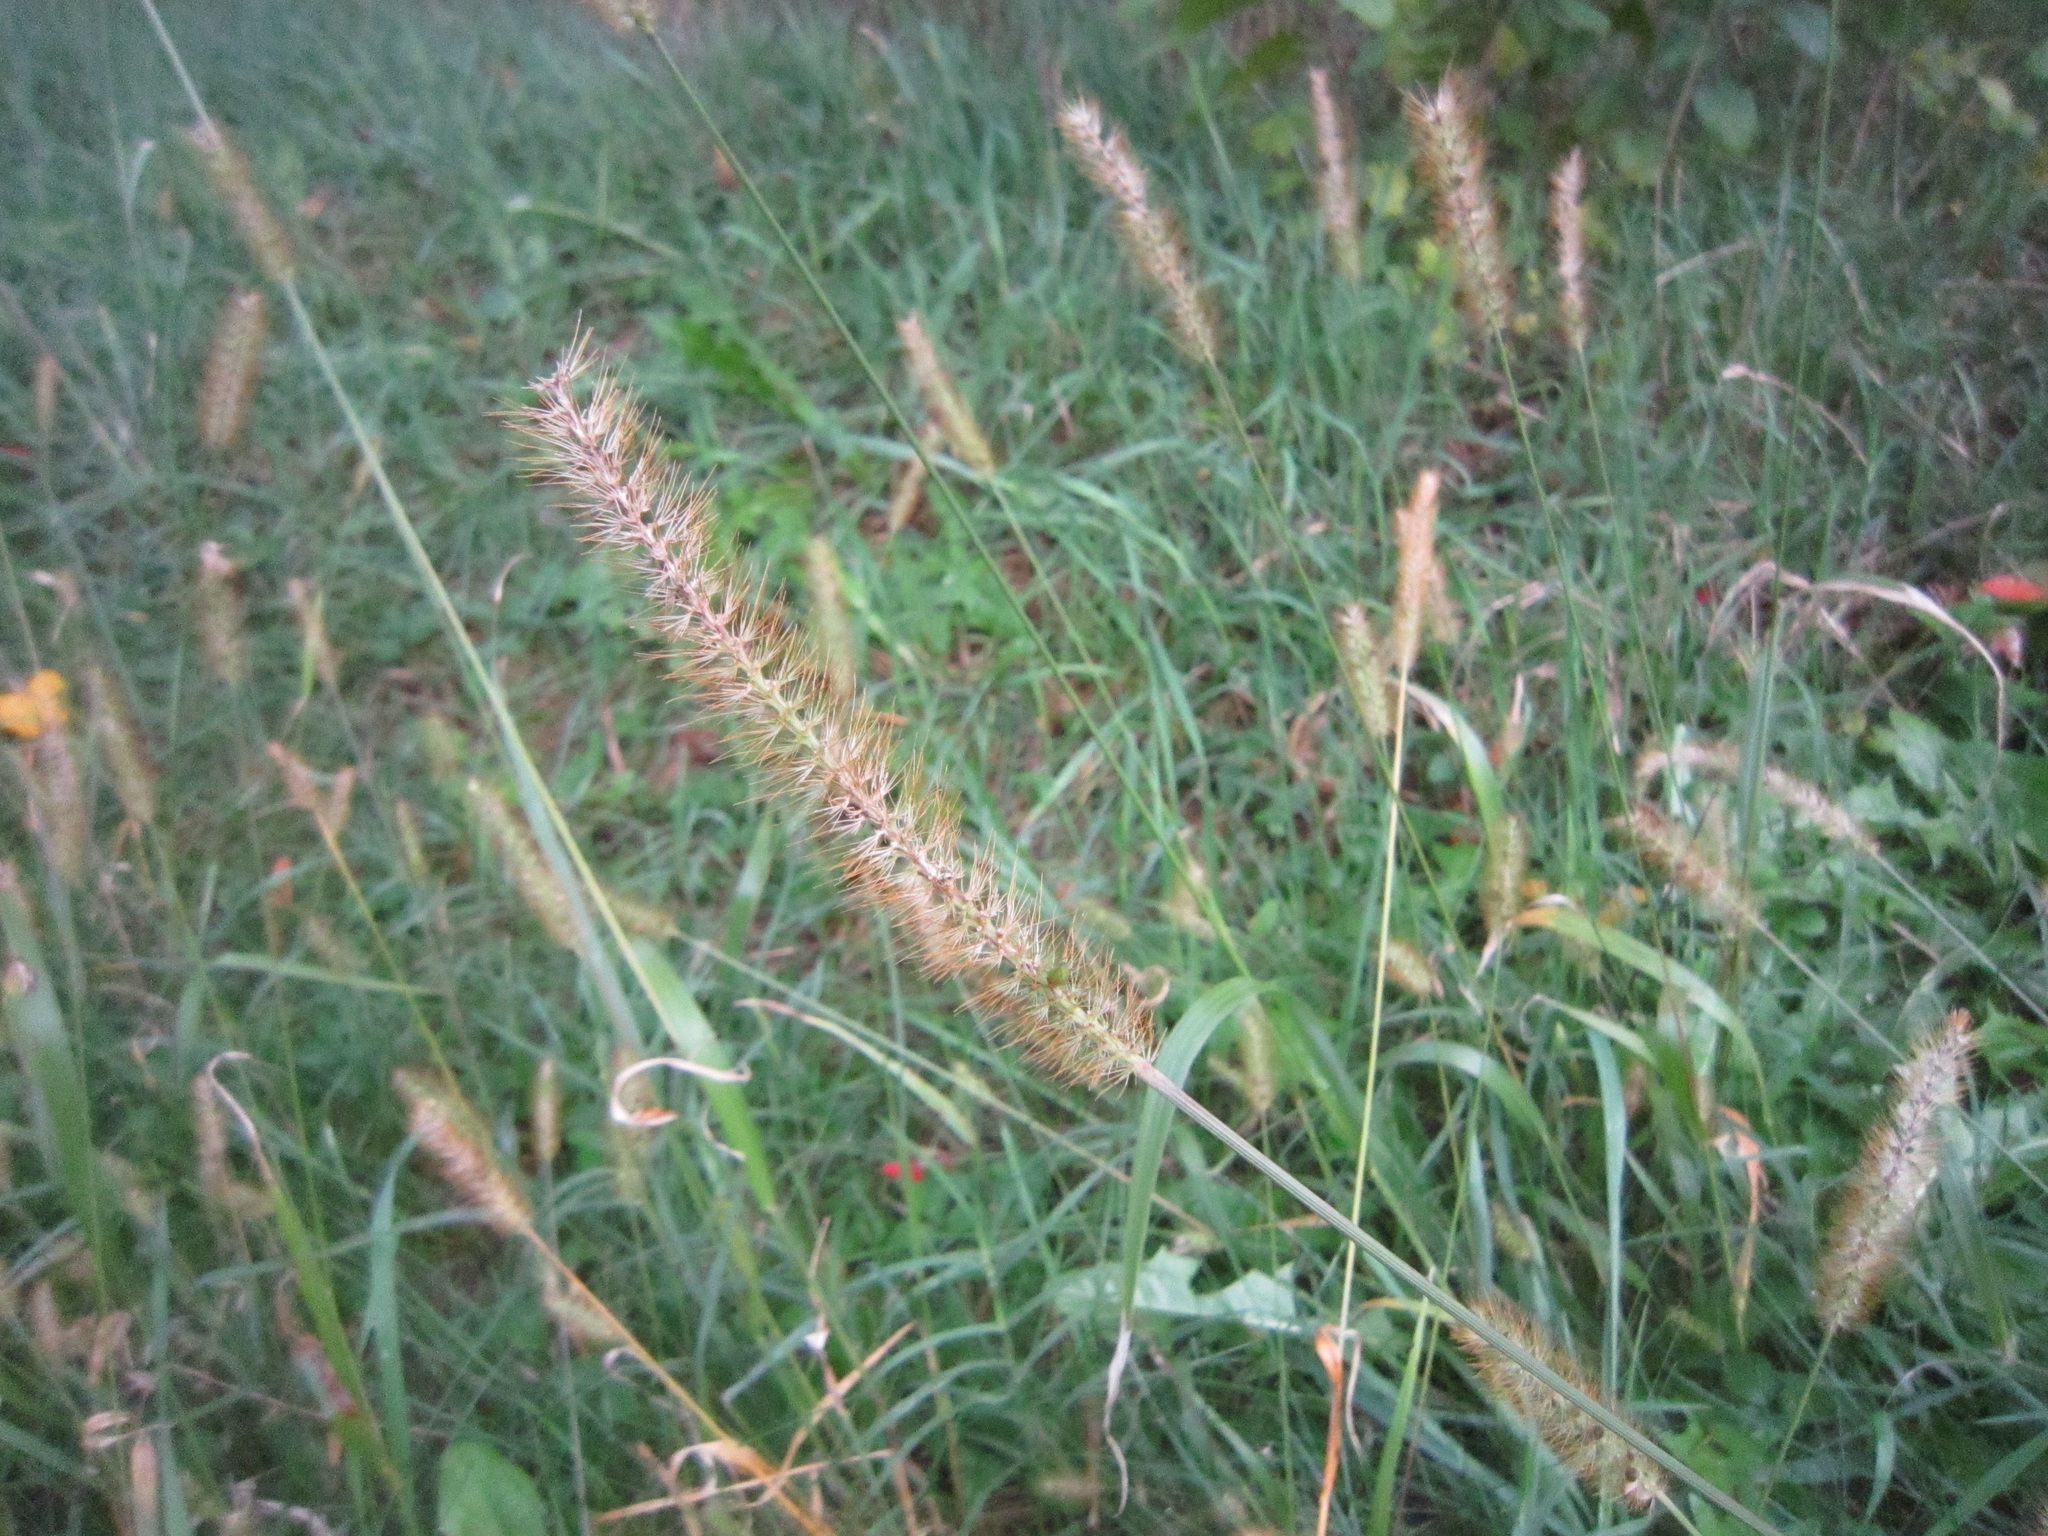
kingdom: Plantae
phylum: Tracheophyta
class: Liliopsida
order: Poales
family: Poaceae
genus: Setaria
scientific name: Setaria
